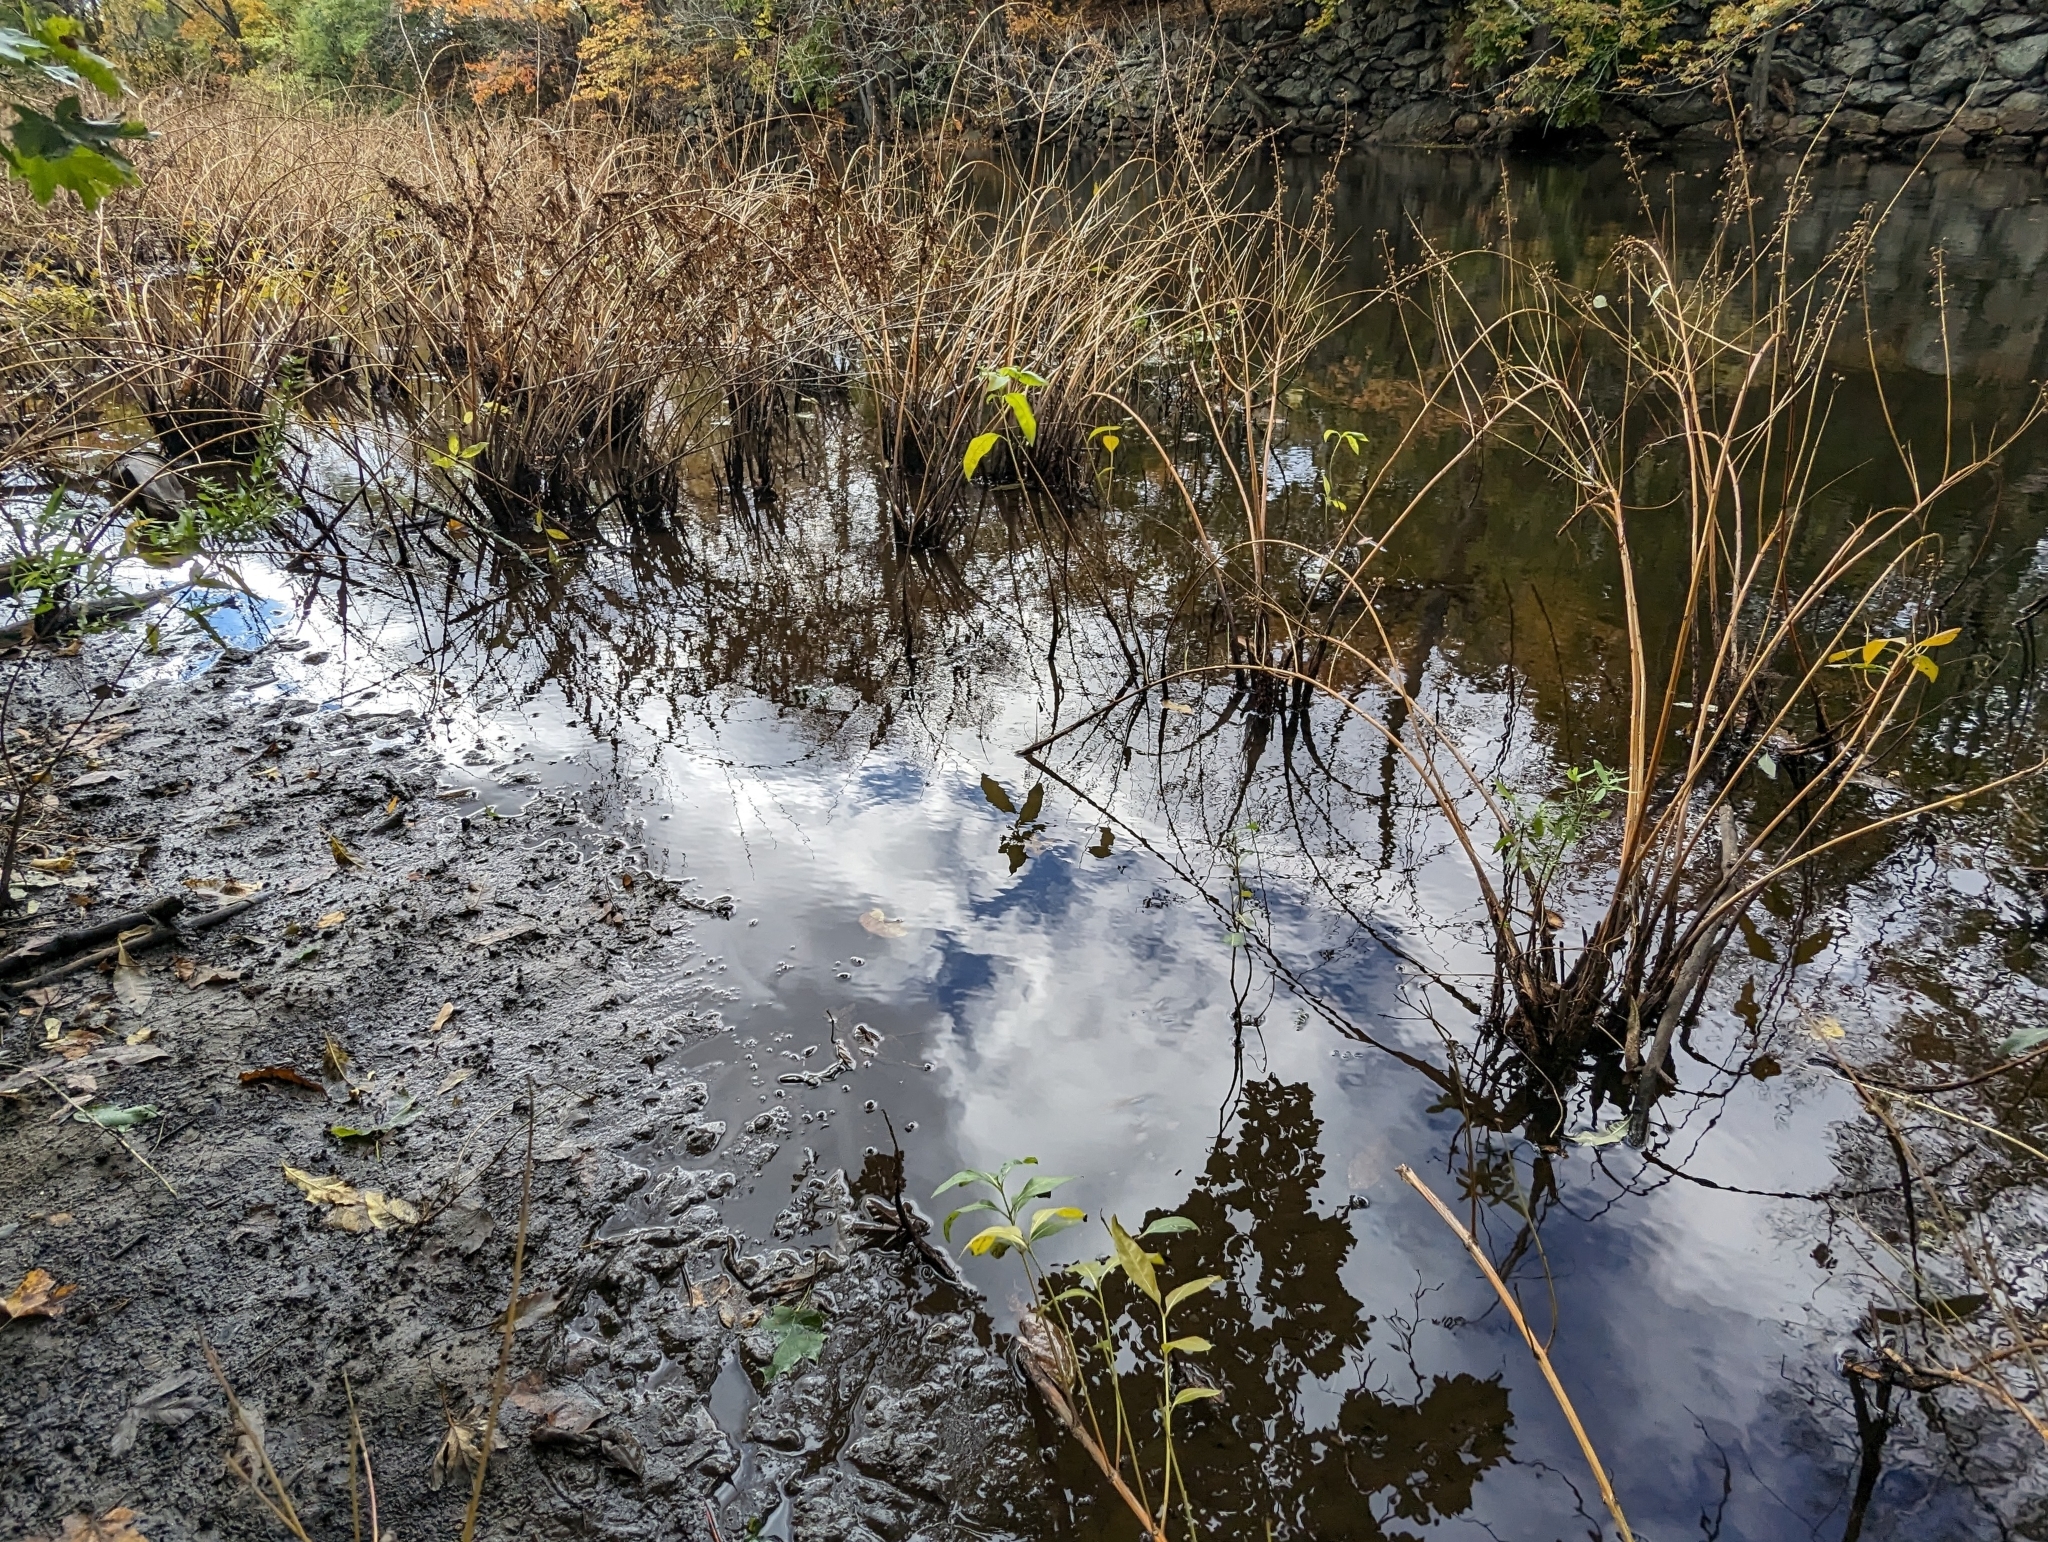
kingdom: Plantae
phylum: Tracheophyta
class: Magnoliopsida
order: Myrtales
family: Lythraceae
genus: Decodon
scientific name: Decodon verticillatus
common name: Hairy swamp loosestrife
